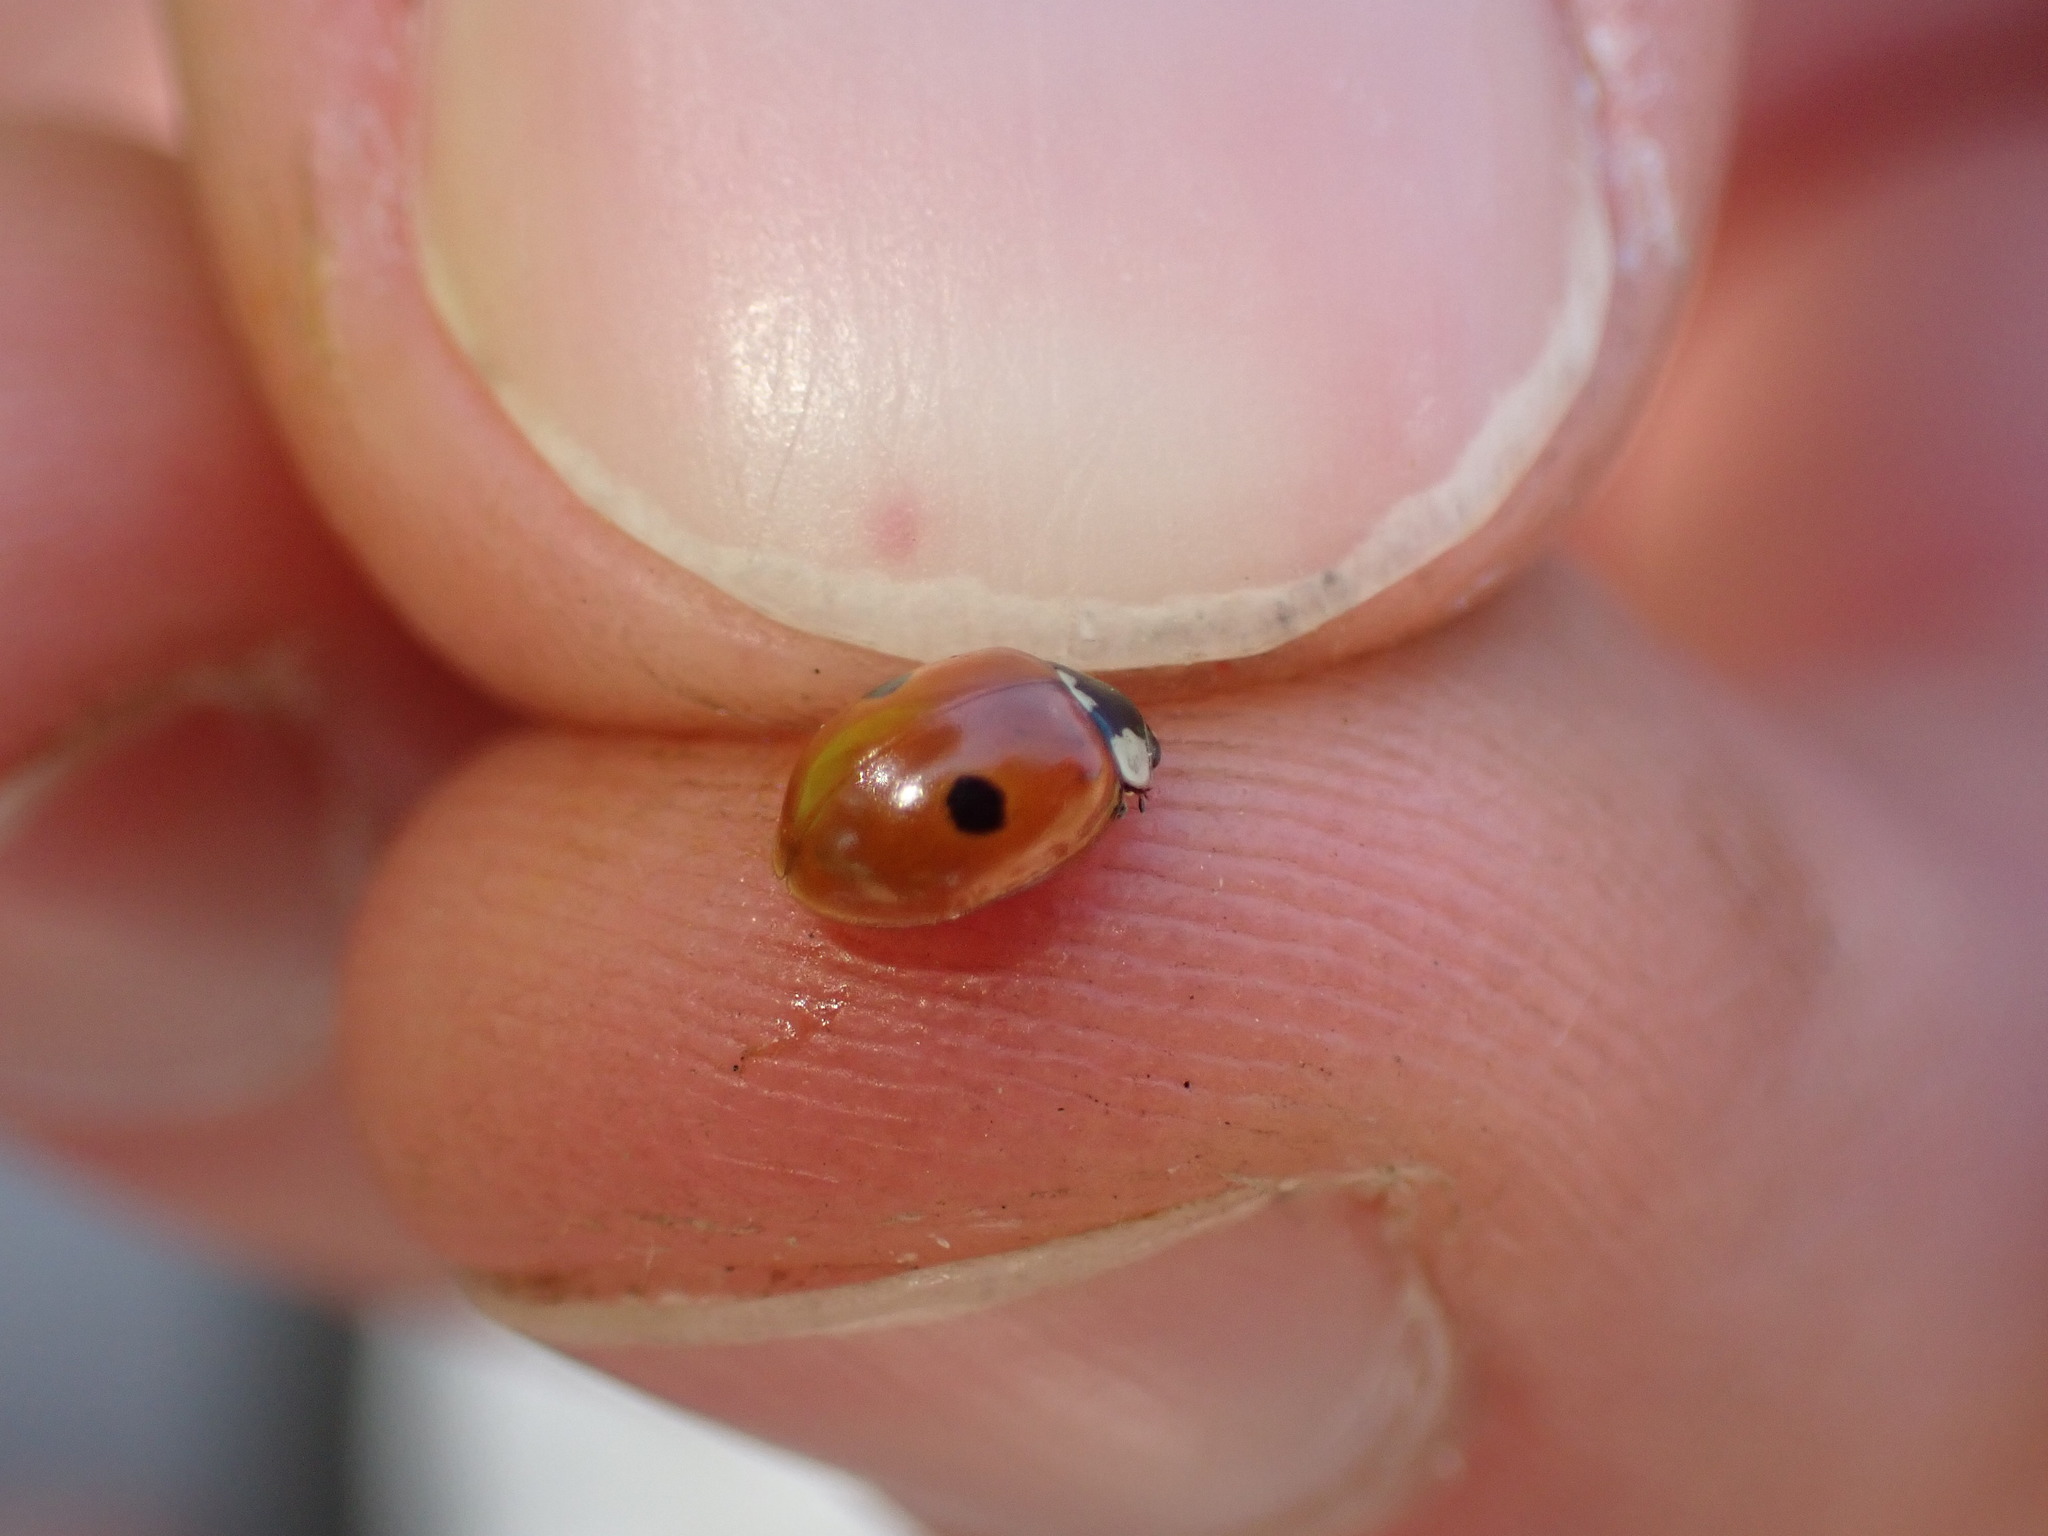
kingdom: Animalia
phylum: Arthropoda
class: Insecta
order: Coleoptera
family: Coccinellidae
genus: Adalia
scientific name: Adalia bipunctata
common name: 2-spot ladybird
